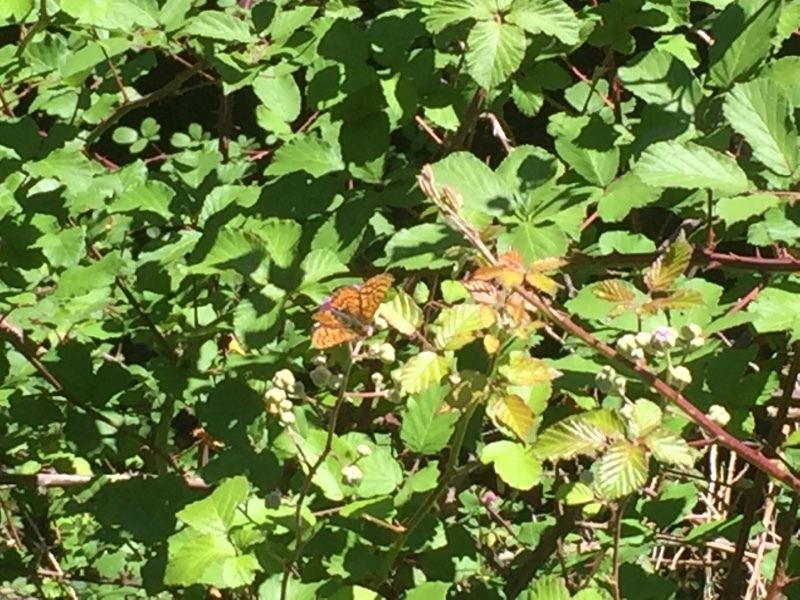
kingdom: Animalia
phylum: Arthropoda
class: Insecta
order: Lepidoptera
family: Nymphalidae
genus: Euphydryas
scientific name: Euphydryas aurinia
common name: Marsh fritillary
